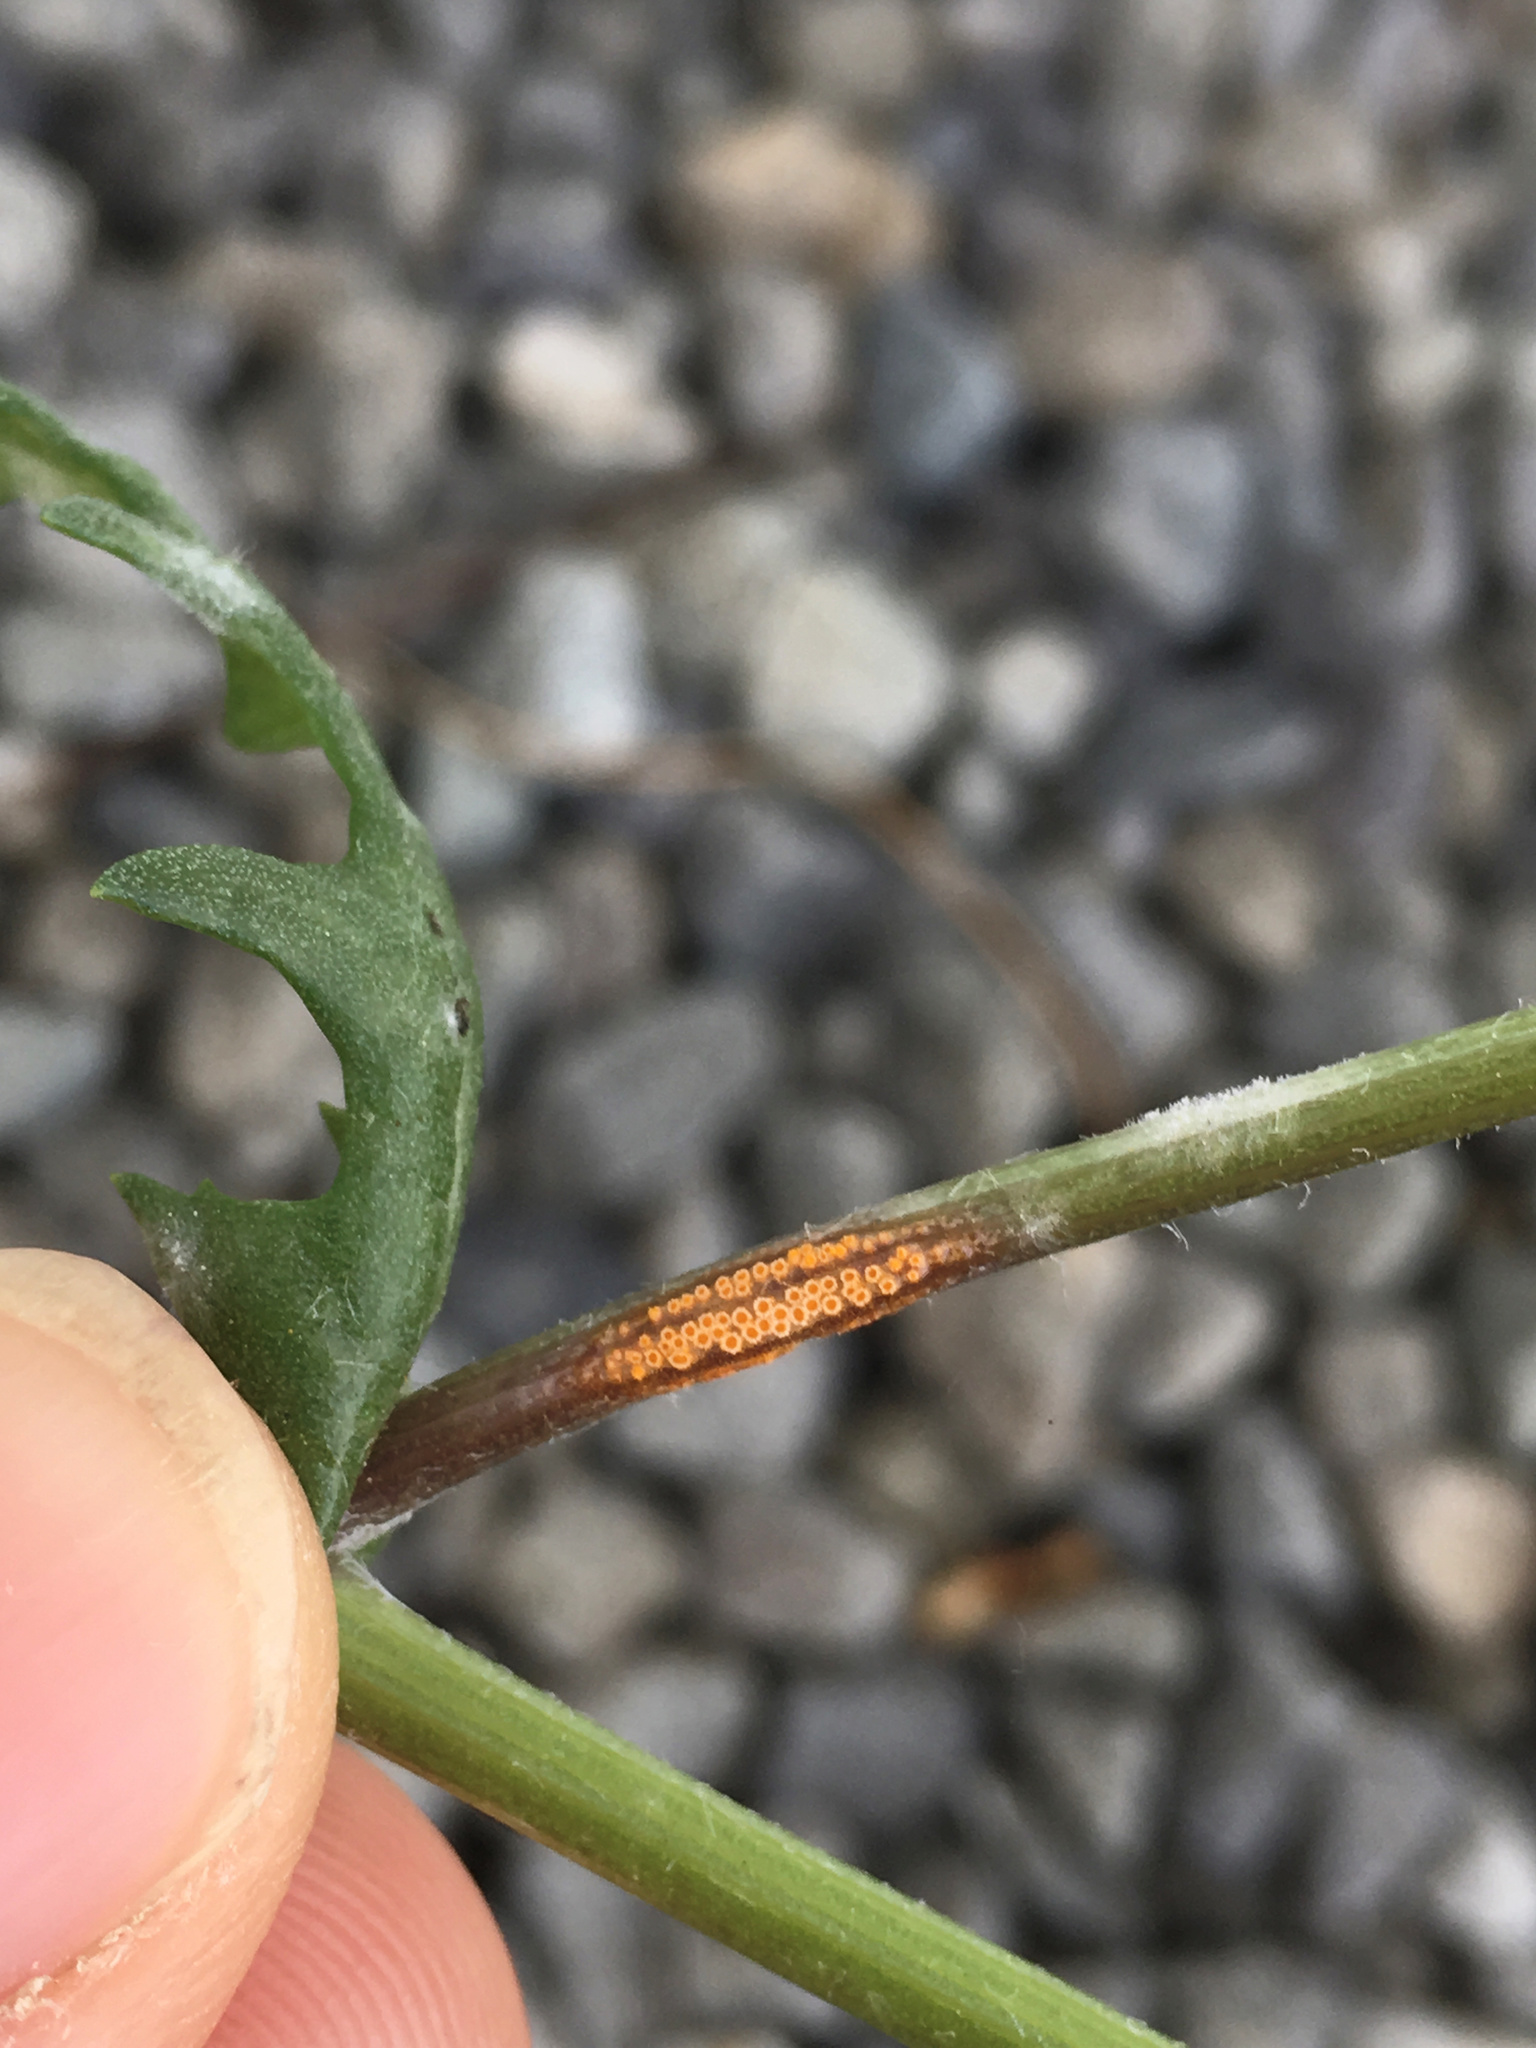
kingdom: Fungi
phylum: Basidiomycota
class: Pucciniomycetes
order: Pucciniales
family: Pucciniaceae
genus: Puccinia
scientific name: Puccinia lagenophorae
